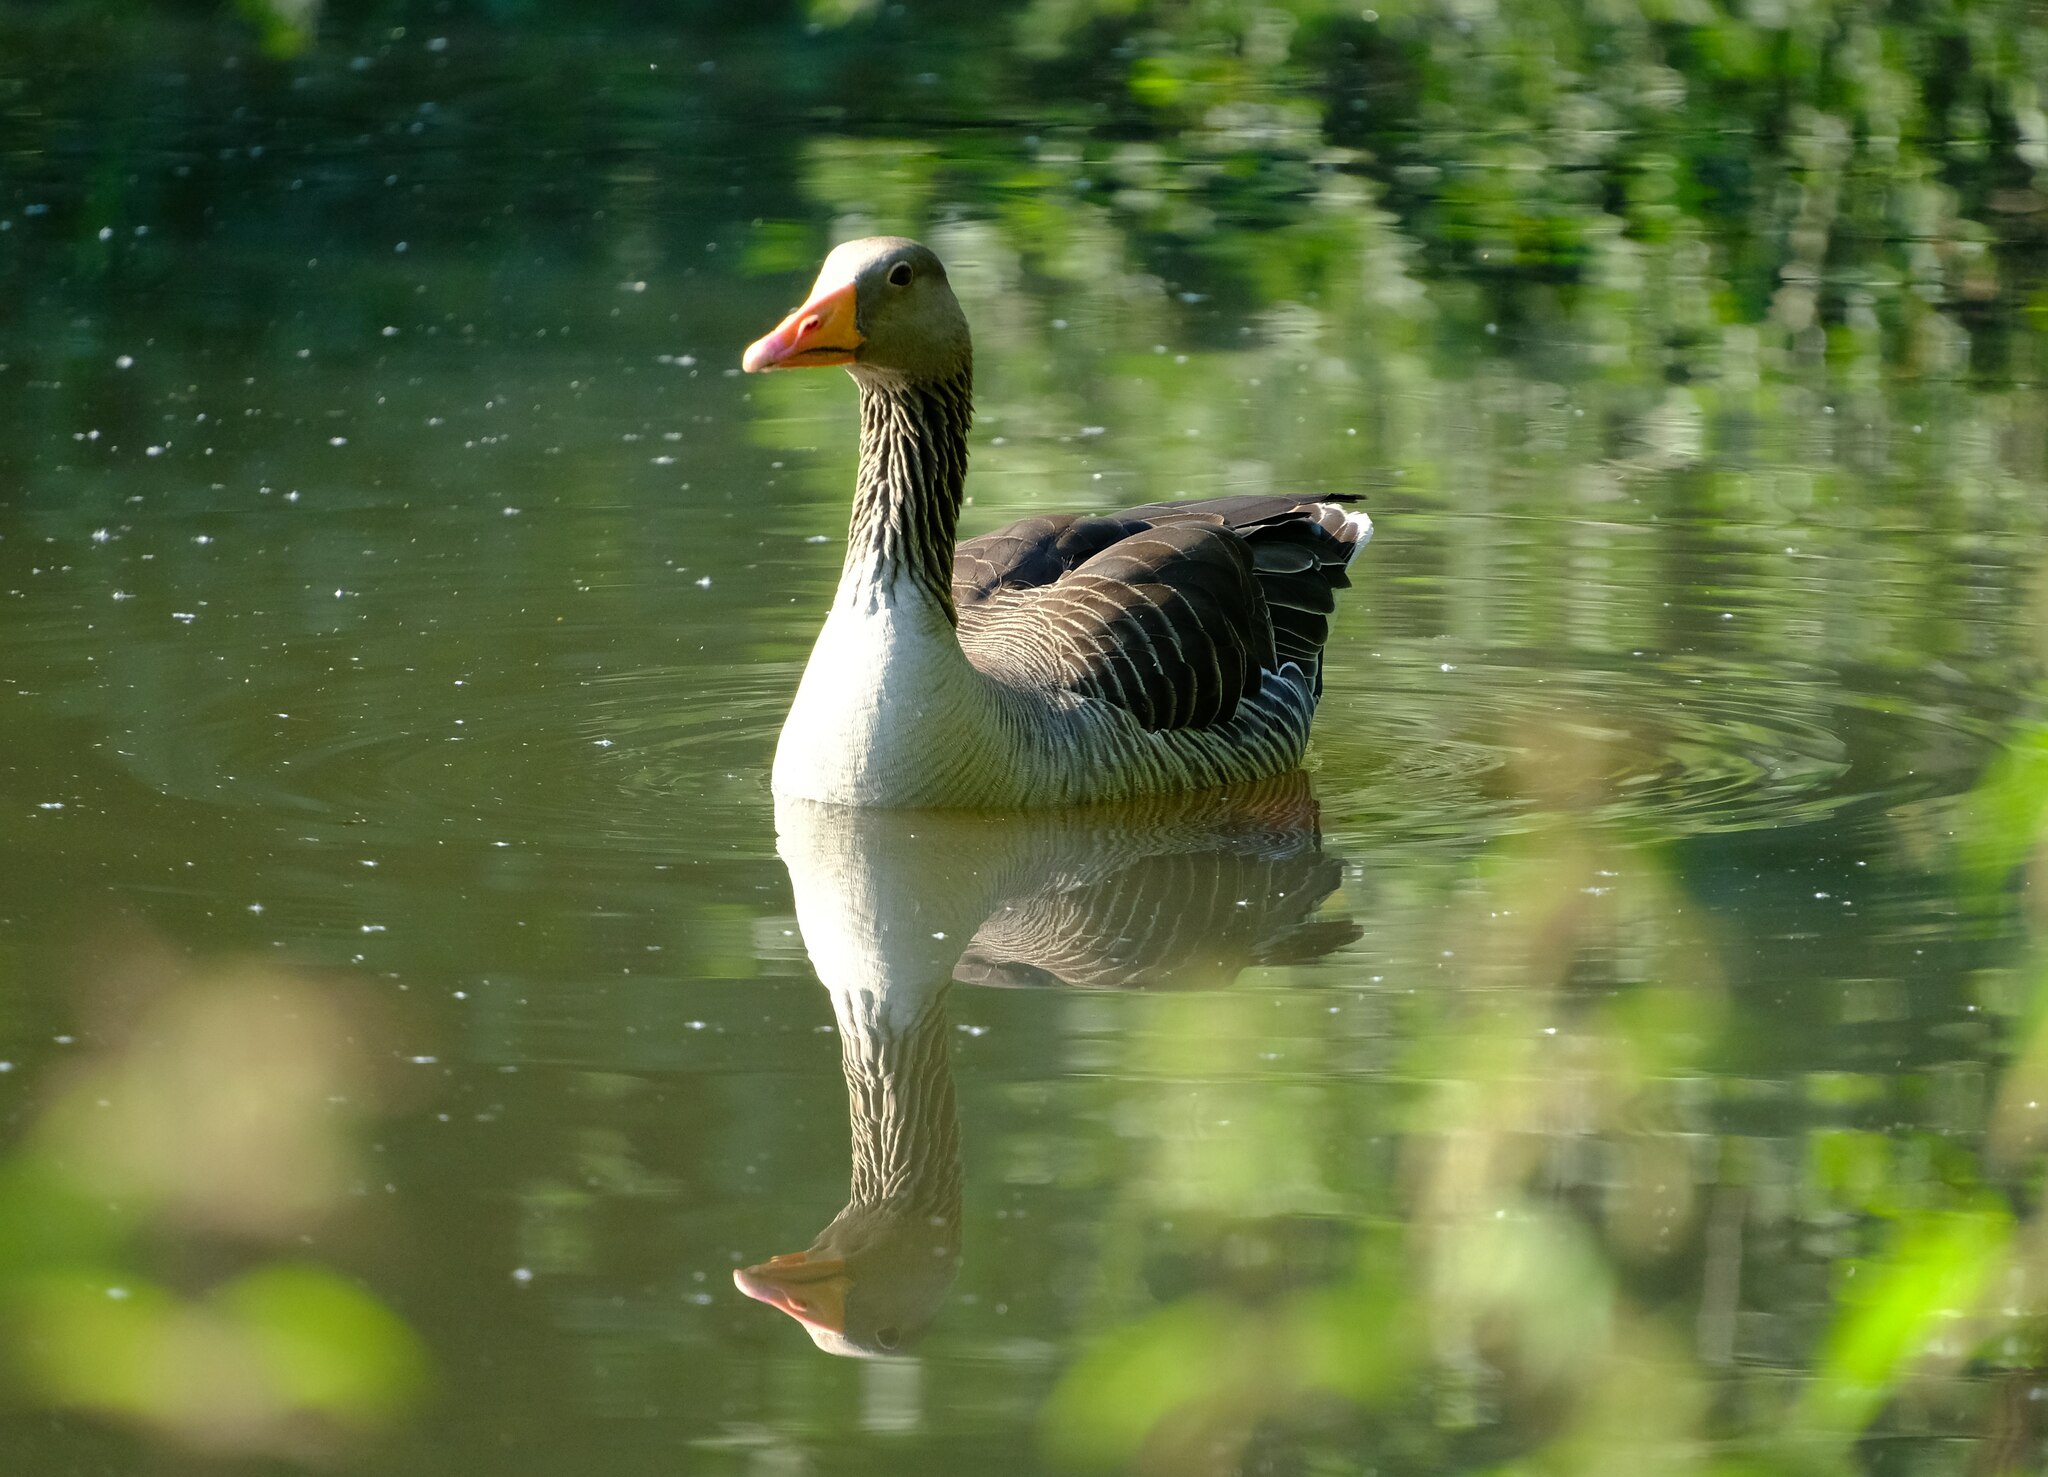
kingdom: Animalia
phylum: Chordata
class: Aves
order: Anseriformes
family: Anatidae
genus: Anser
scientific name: Anser anser
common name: Greylag goose
